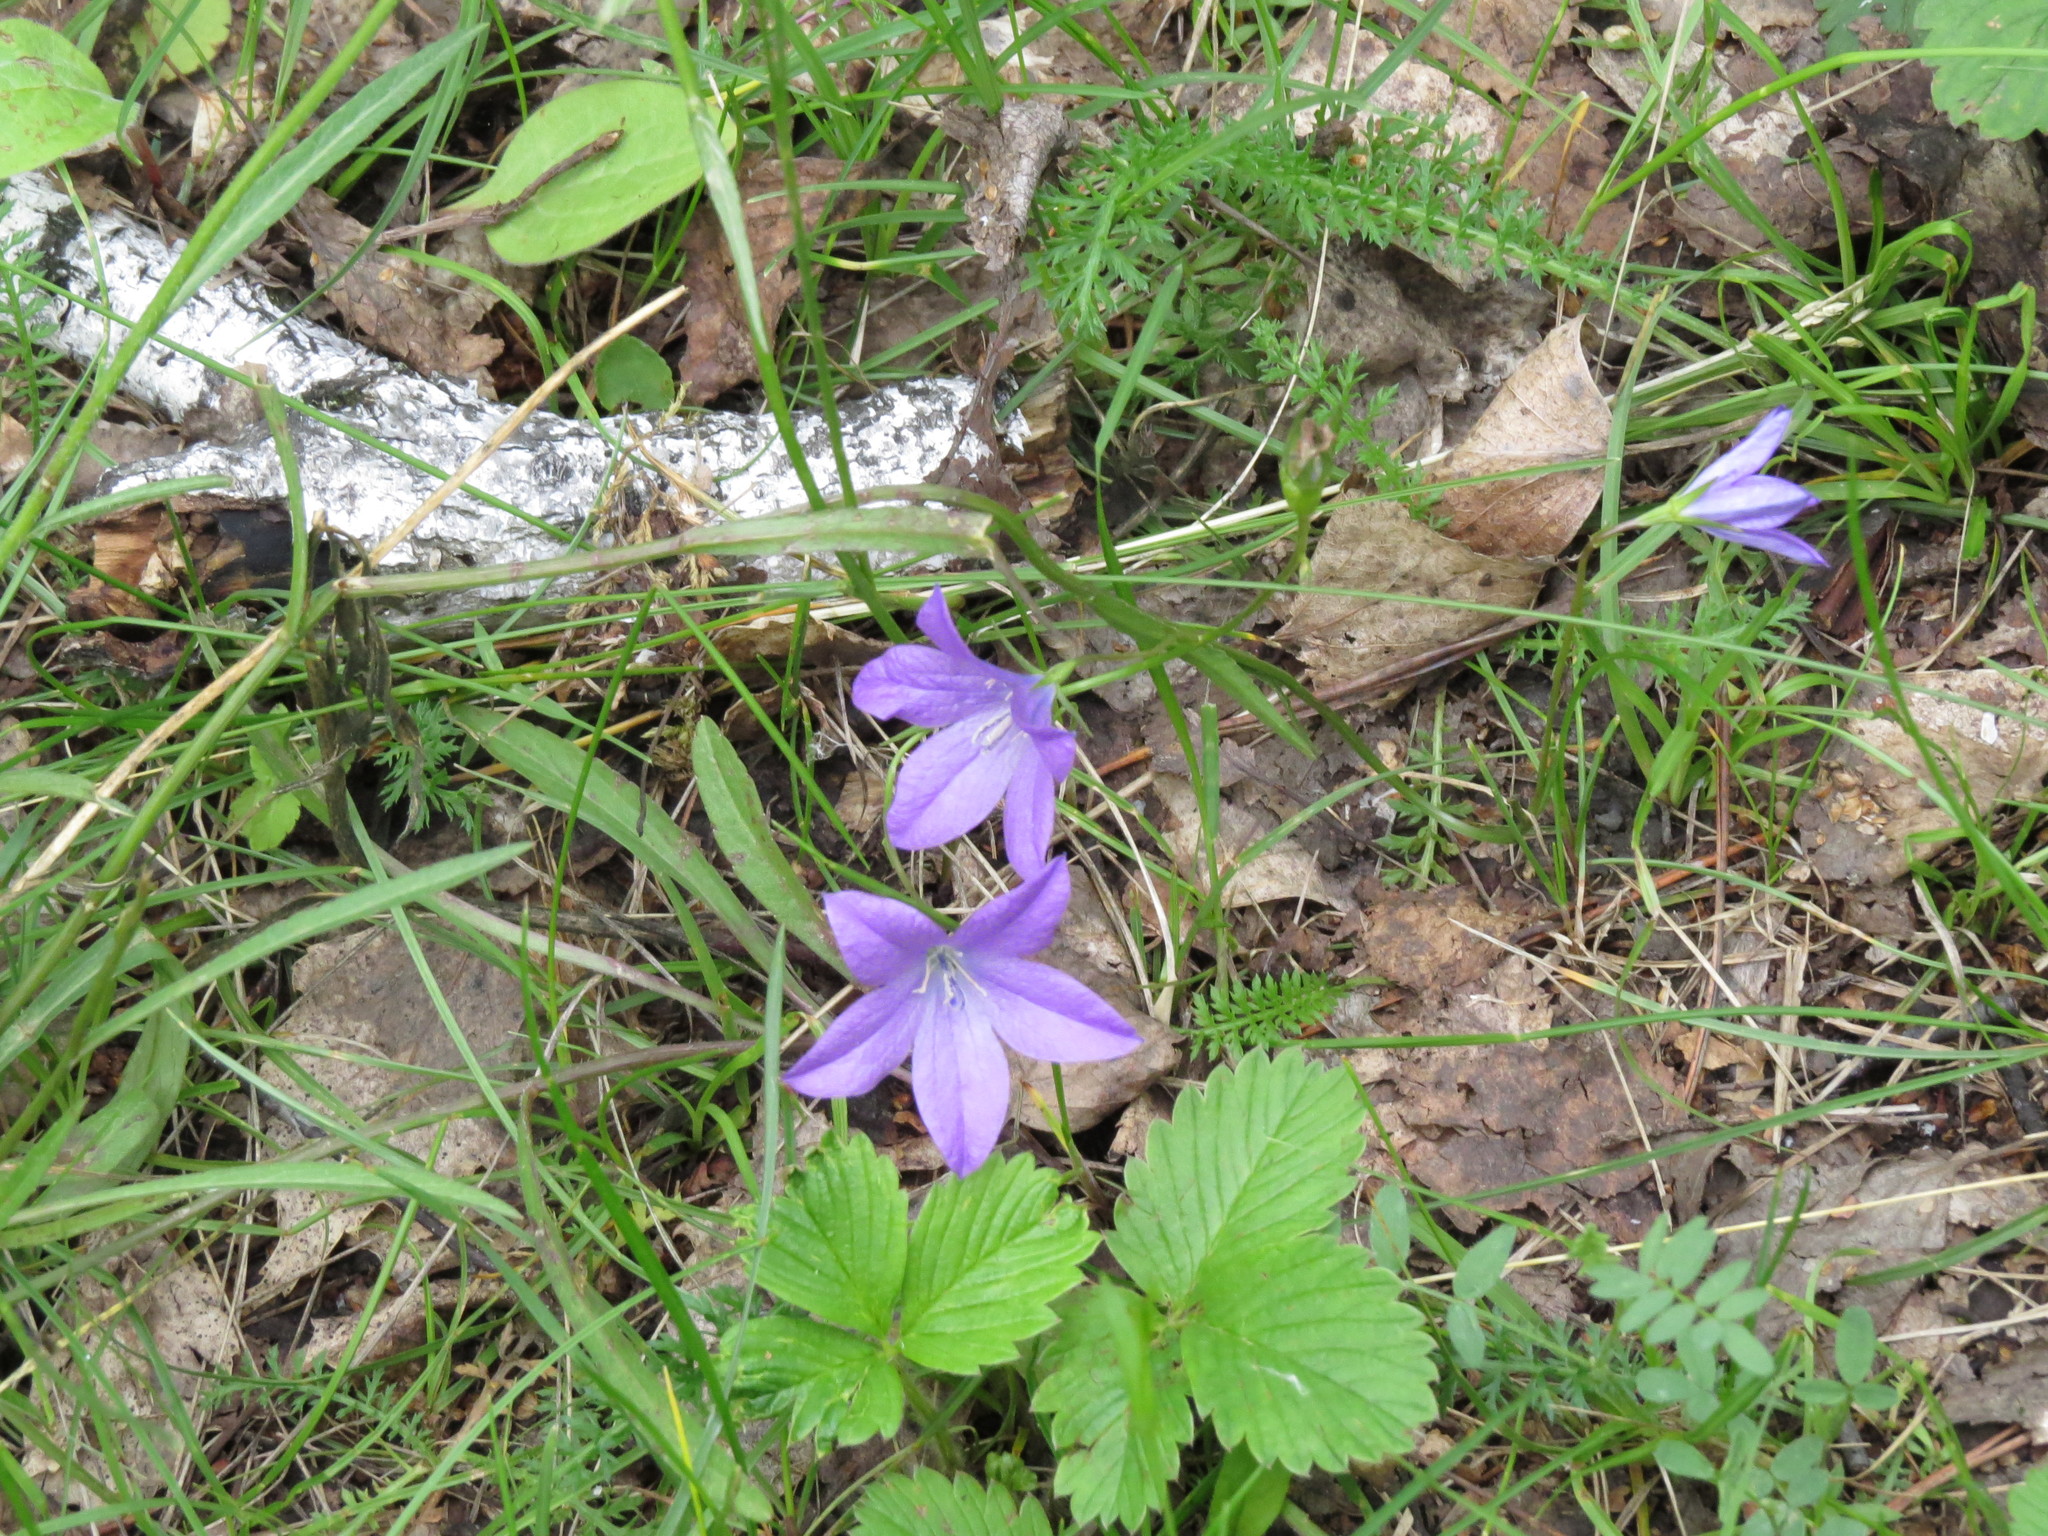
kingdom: Plantae
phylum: Tracheophyta
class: Magnoliopsida
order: Asterales
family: Campanulaceae
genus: Campanula
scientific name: Campanula patula
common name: Spreading bellflower
